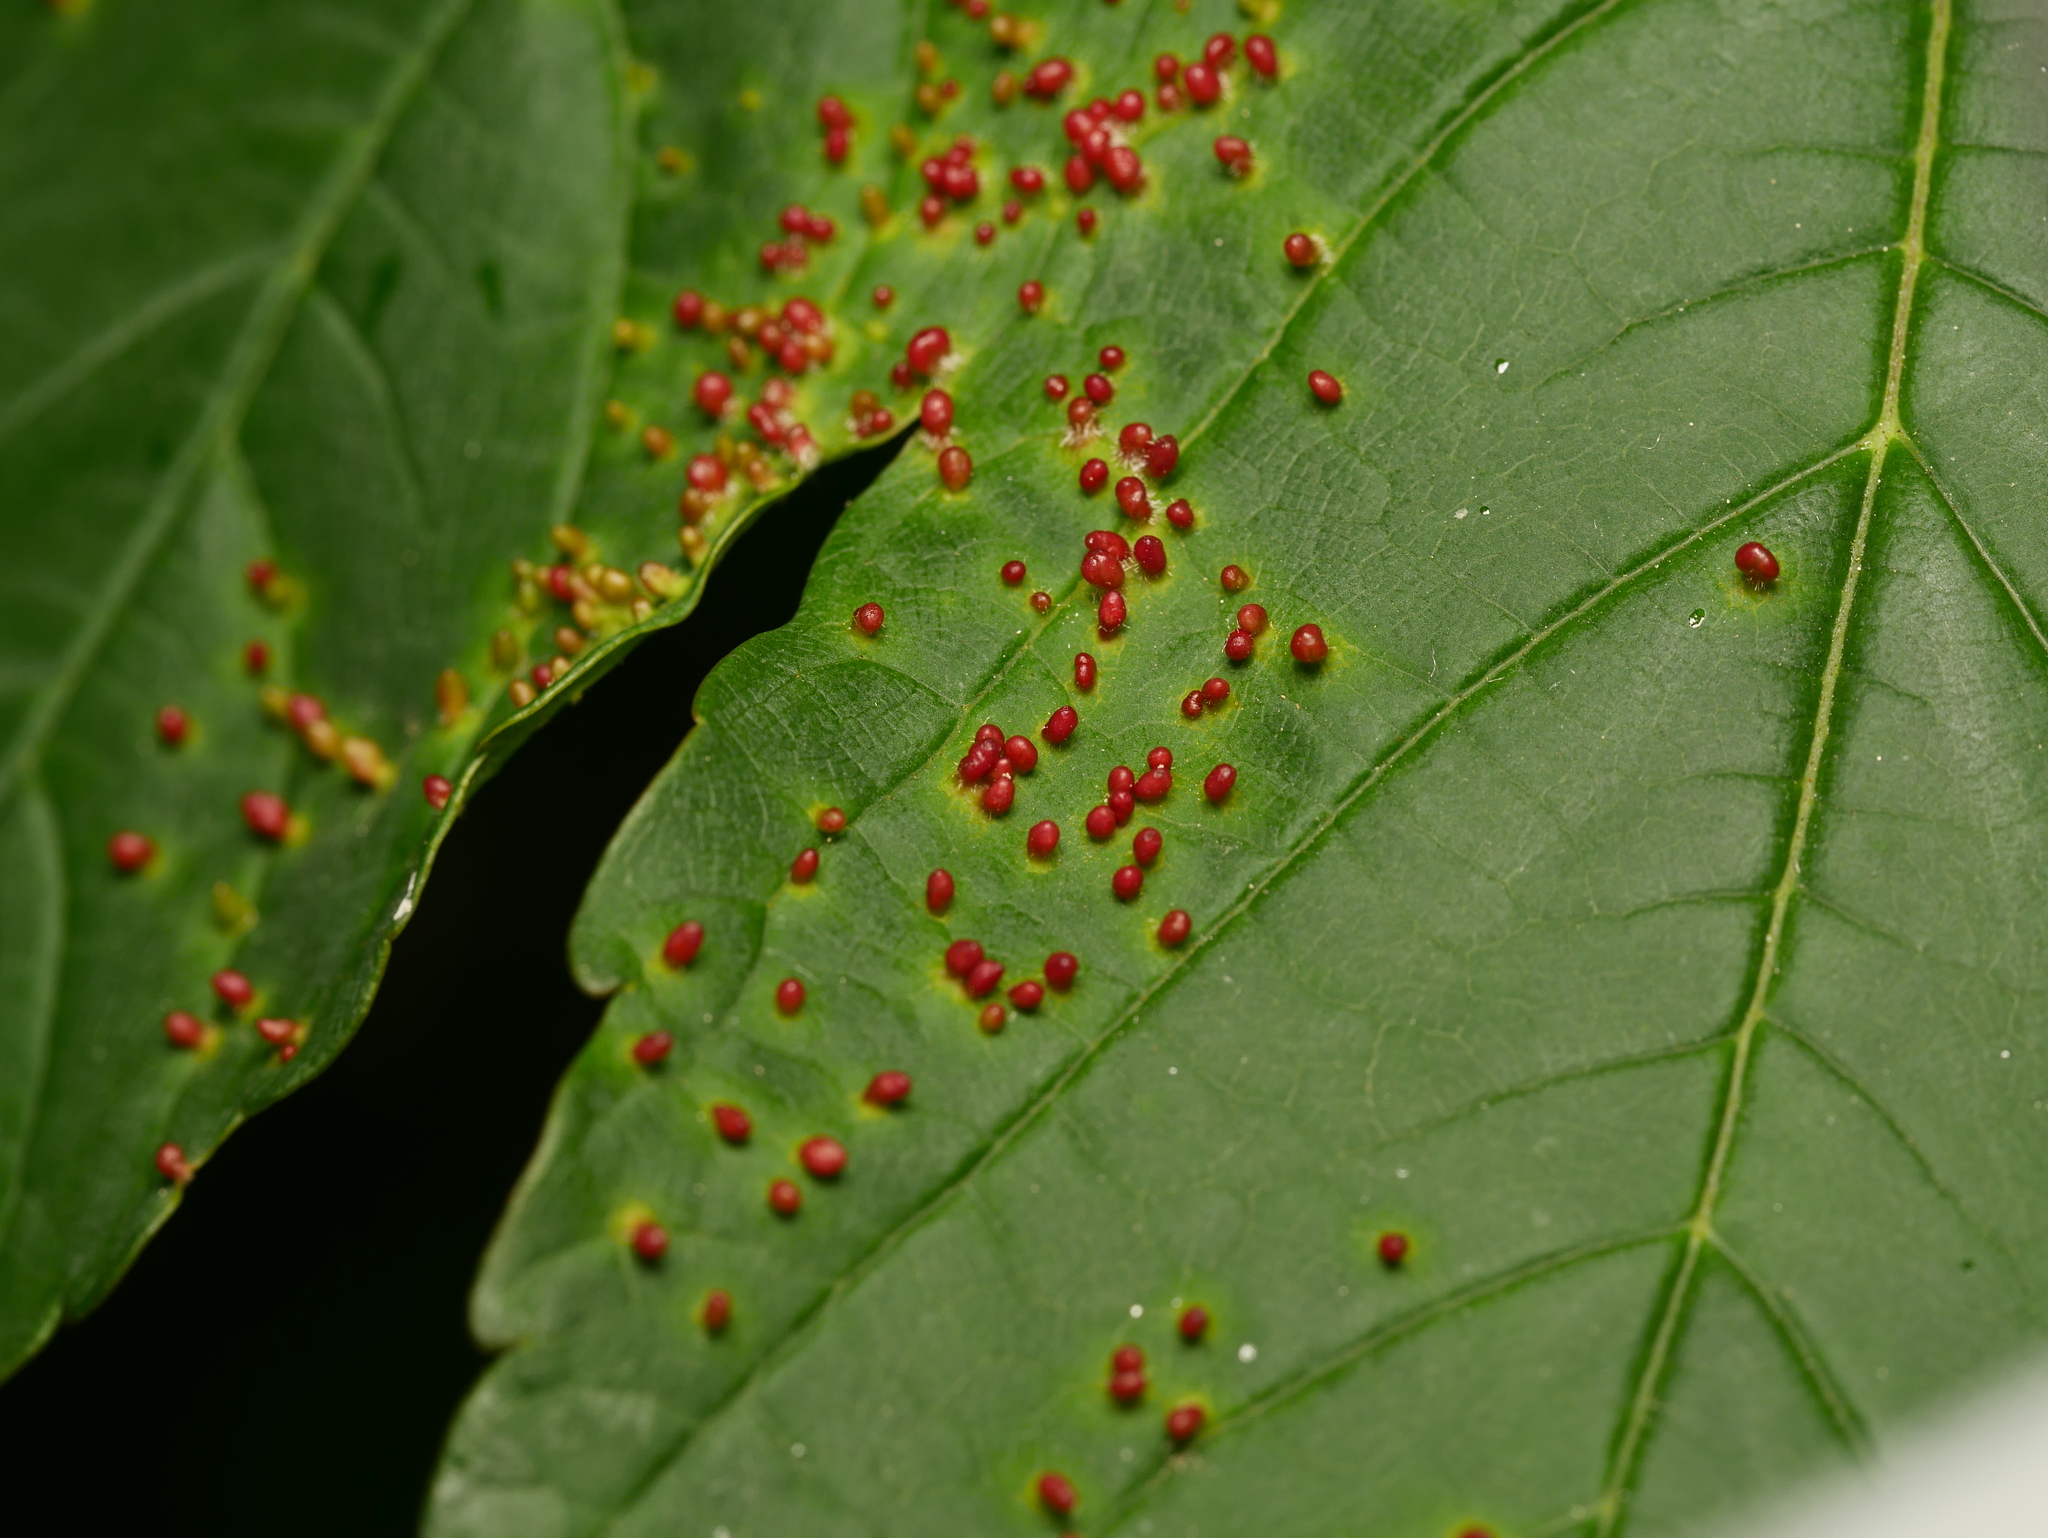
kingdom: Animalia
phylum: Arthropoda
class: Arachnida
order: Trombidiformes
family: Eriophyidae
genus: Aceria
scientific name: Aceria cephaloneus
